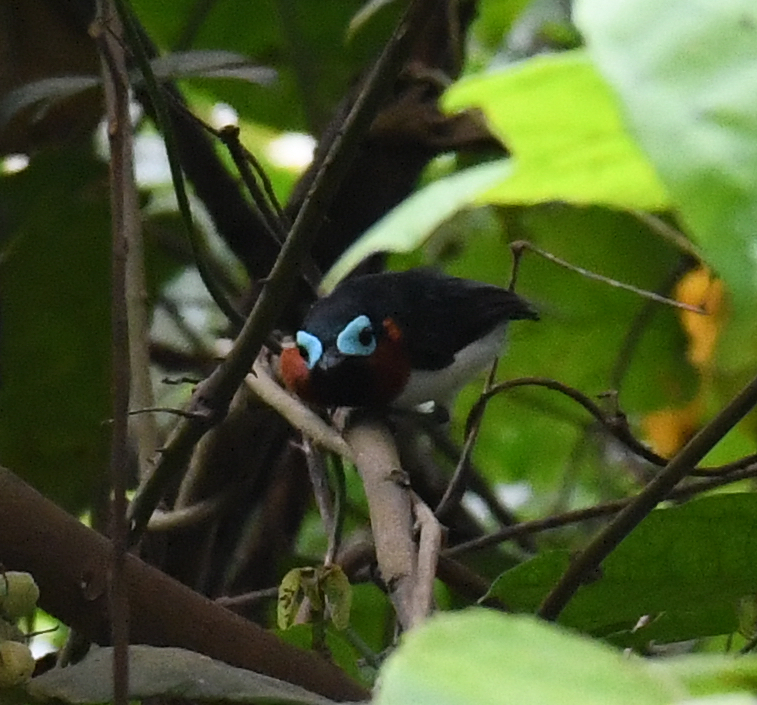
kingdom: Animalia
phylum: Chordata
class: Aves
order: Passeriformes
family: Platysteiridae
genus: Platysteira
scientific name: Platysteira blissetti
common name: Red-cheeked wattle-eye
